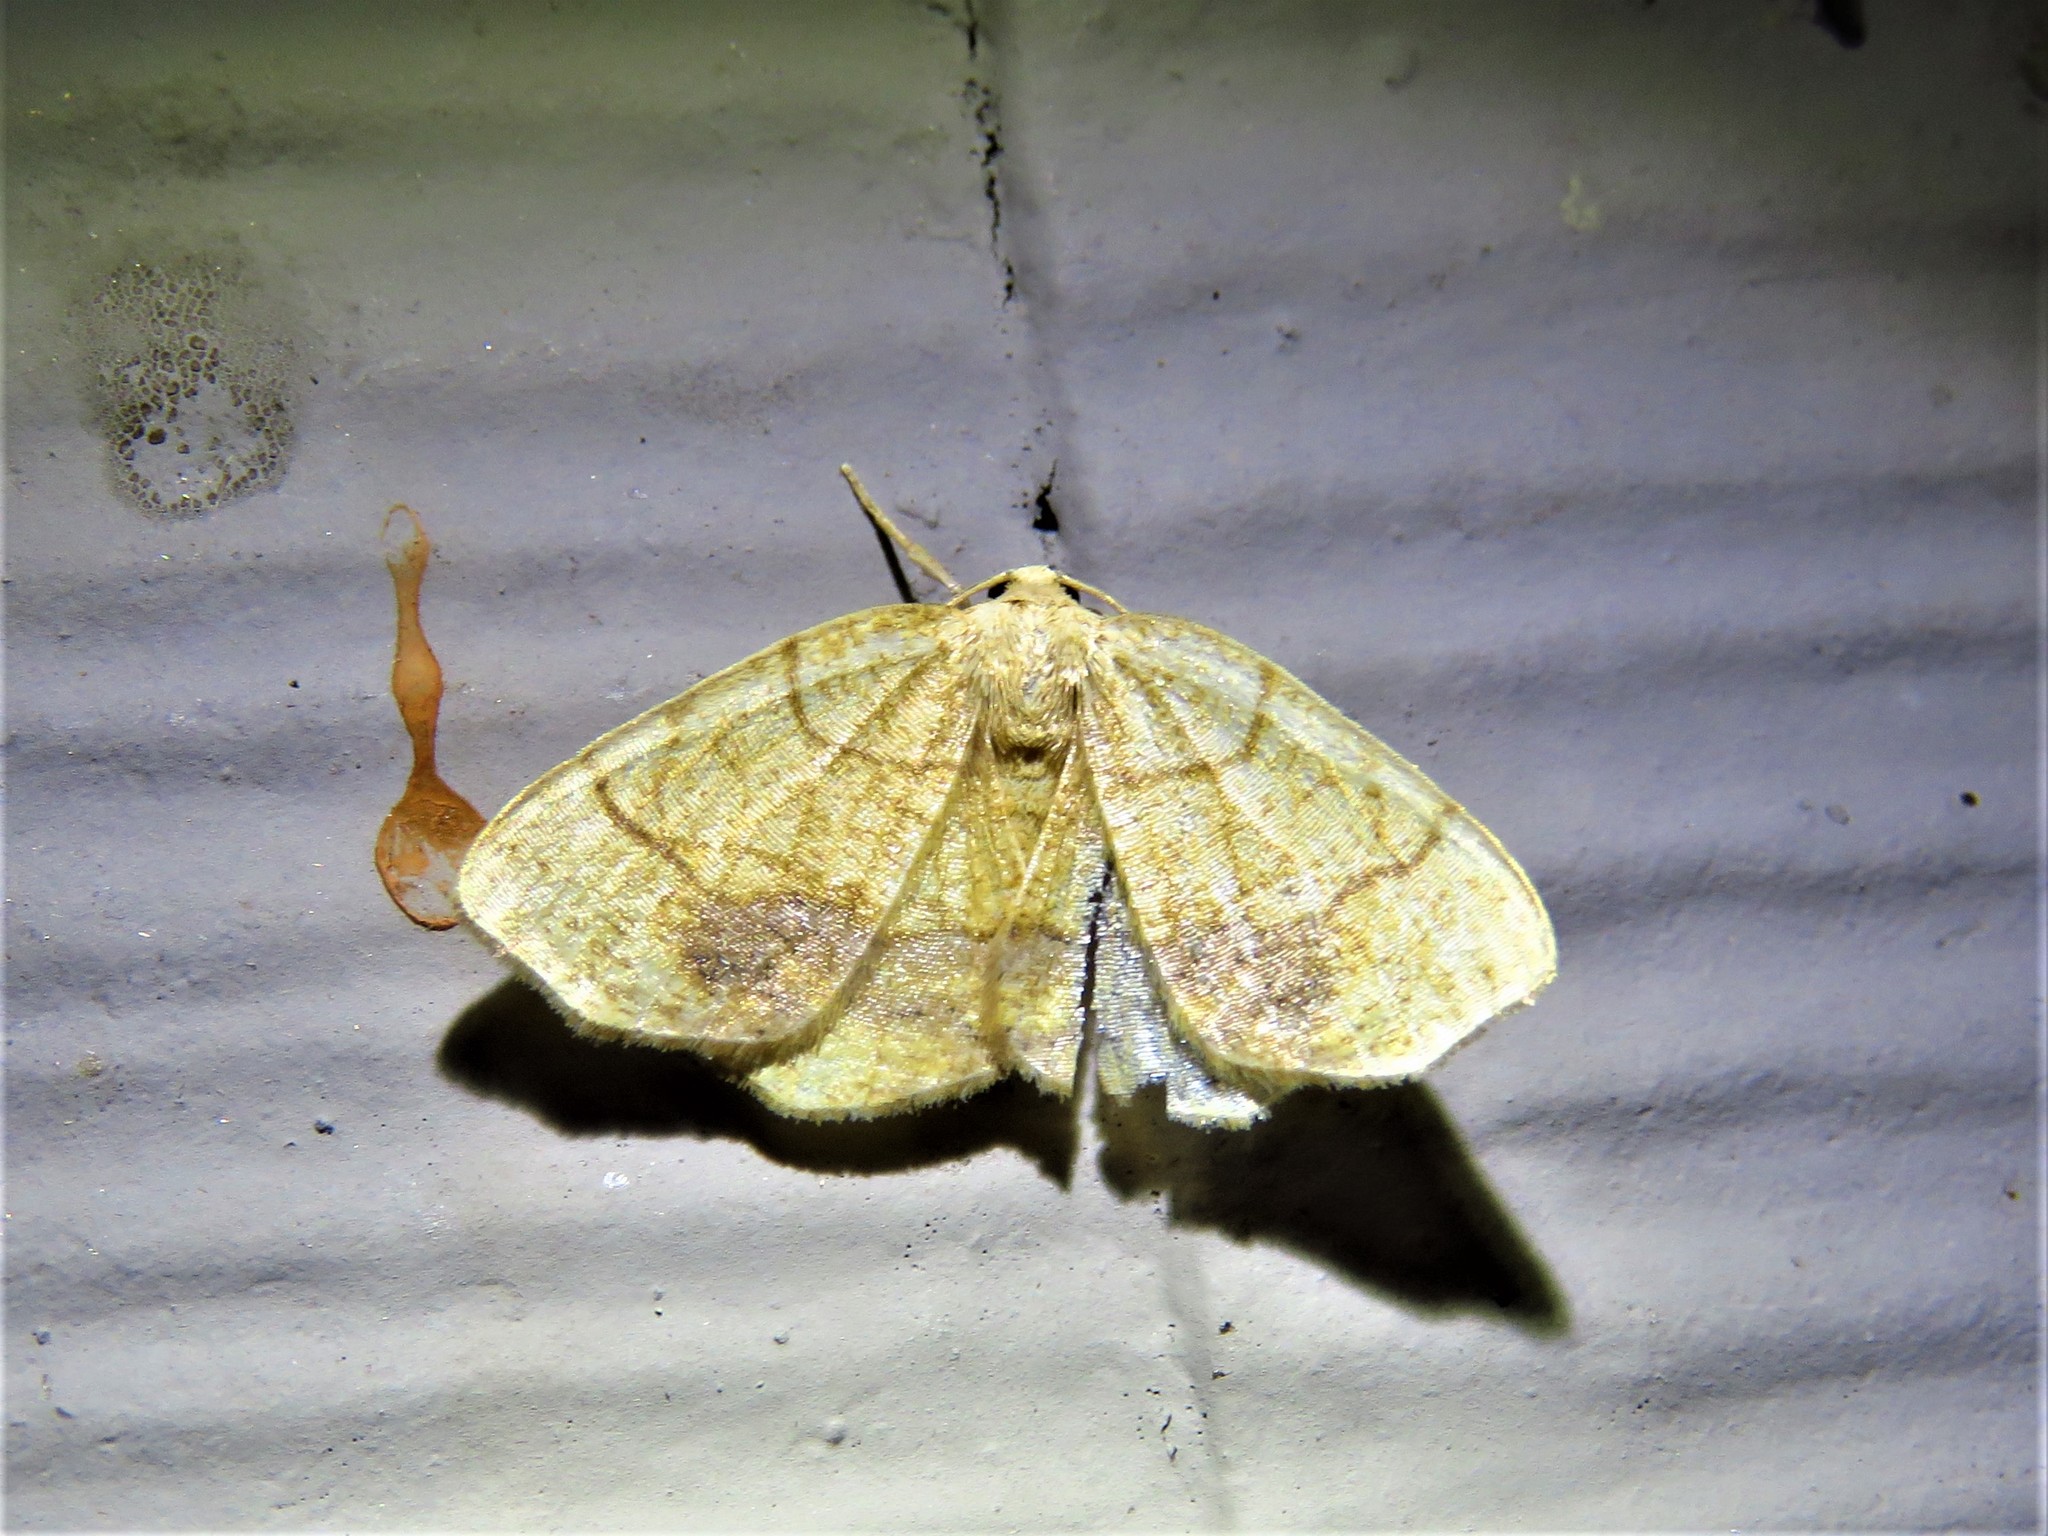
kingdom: Animalia
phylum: Arthropoda
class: Insecta
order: Lepidoptera
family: Geometridae
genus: Nematocampa
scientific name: Nematocampa resistaria
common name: Horned spanworm moth
